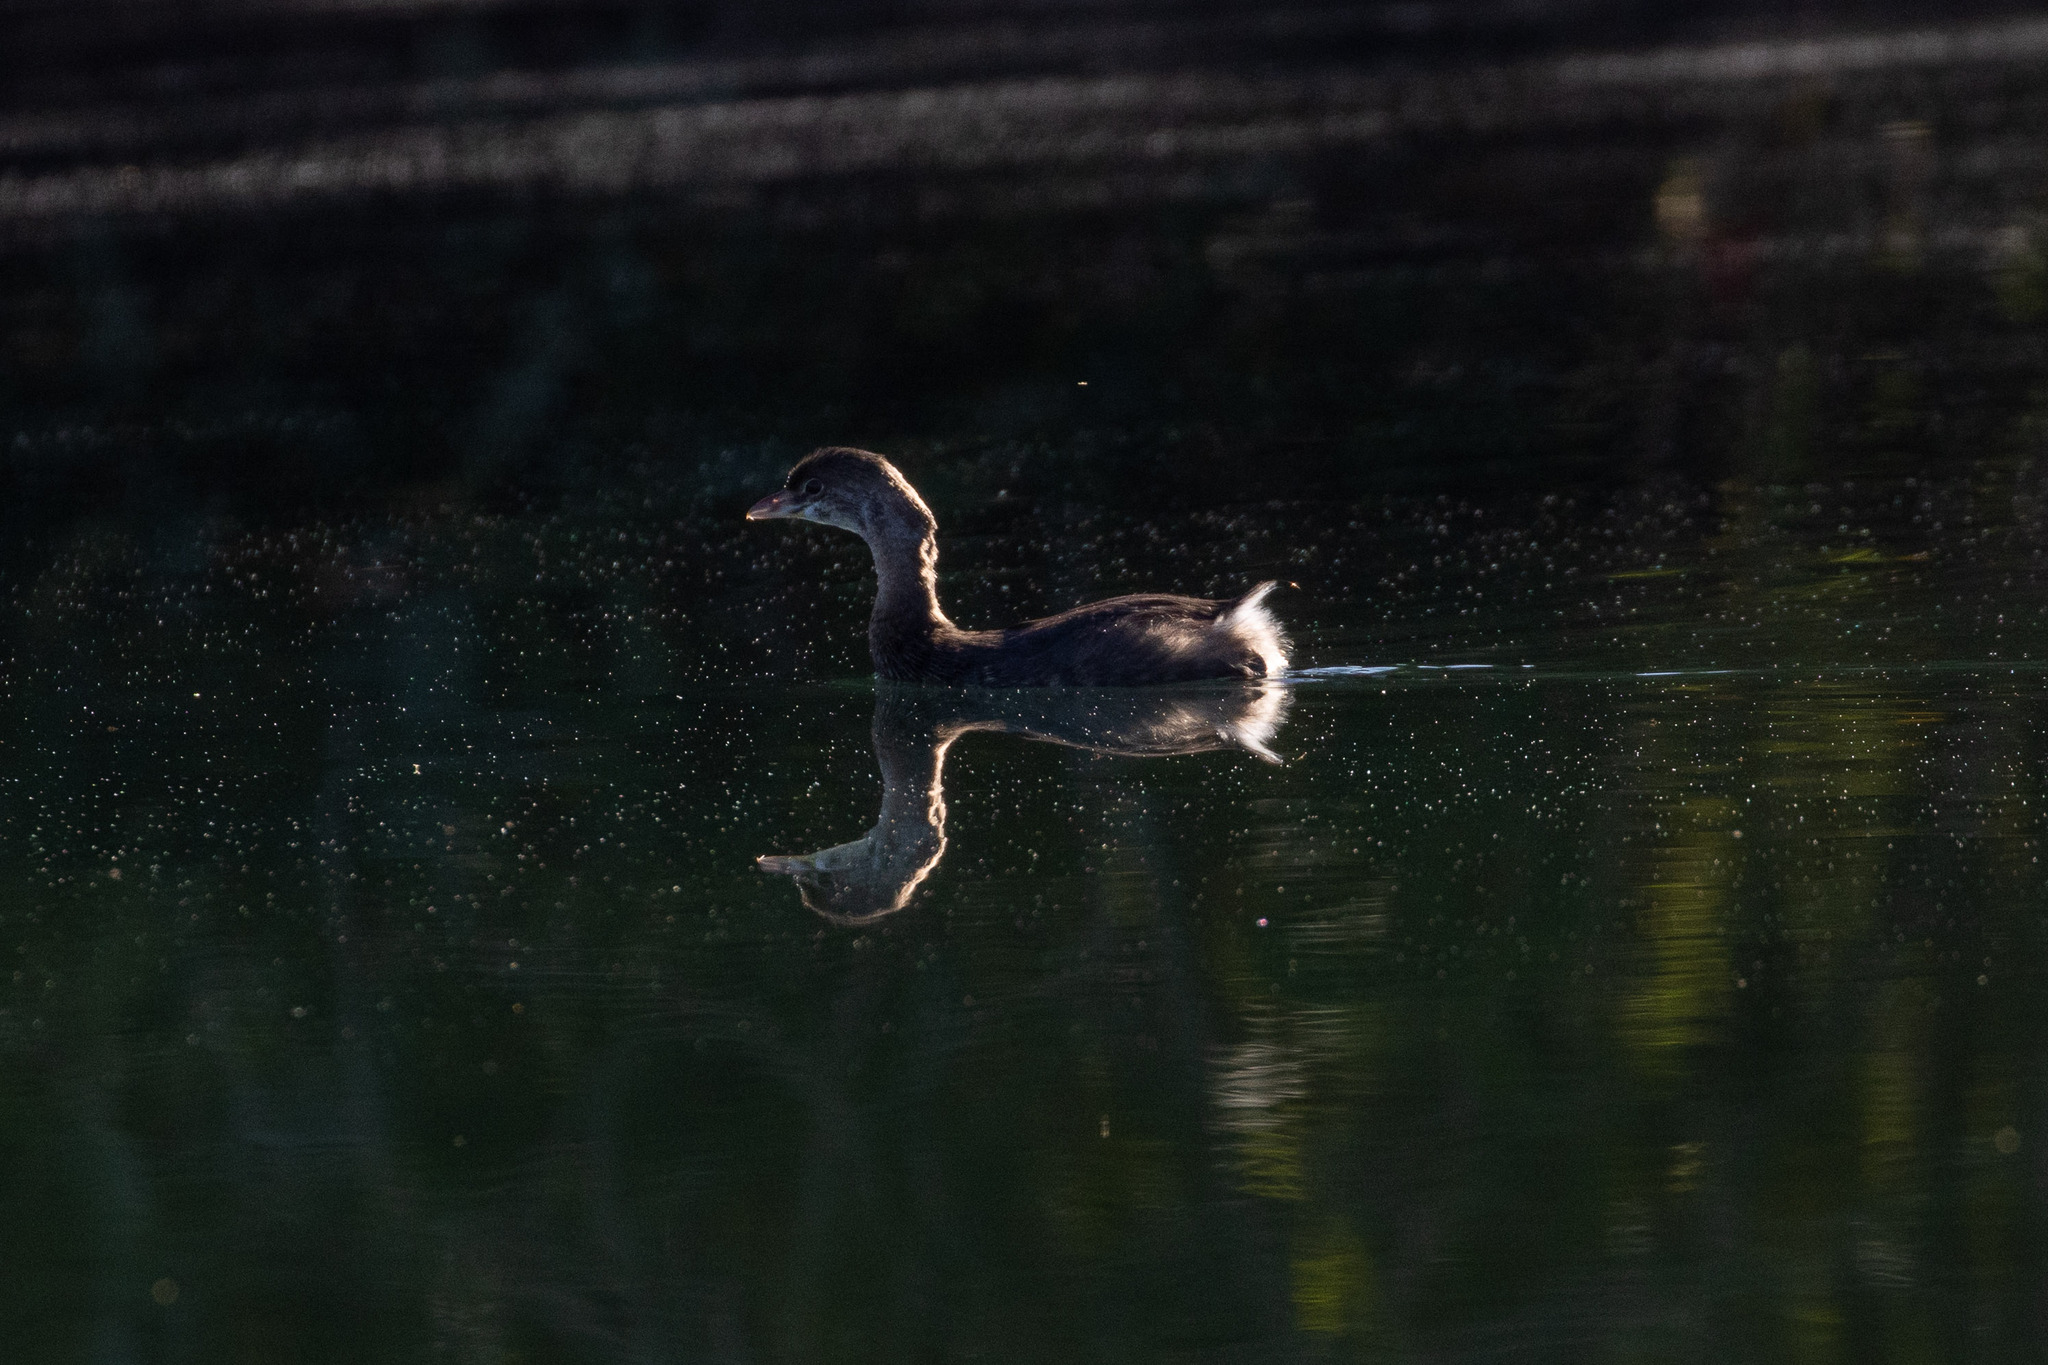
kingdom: Animalia
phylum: Chordata
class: Aves
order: Podicipediformes
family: Podicipedidae
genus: Podilymbus
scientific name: Podilymbus podiceps
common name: Pied-billed grebe
